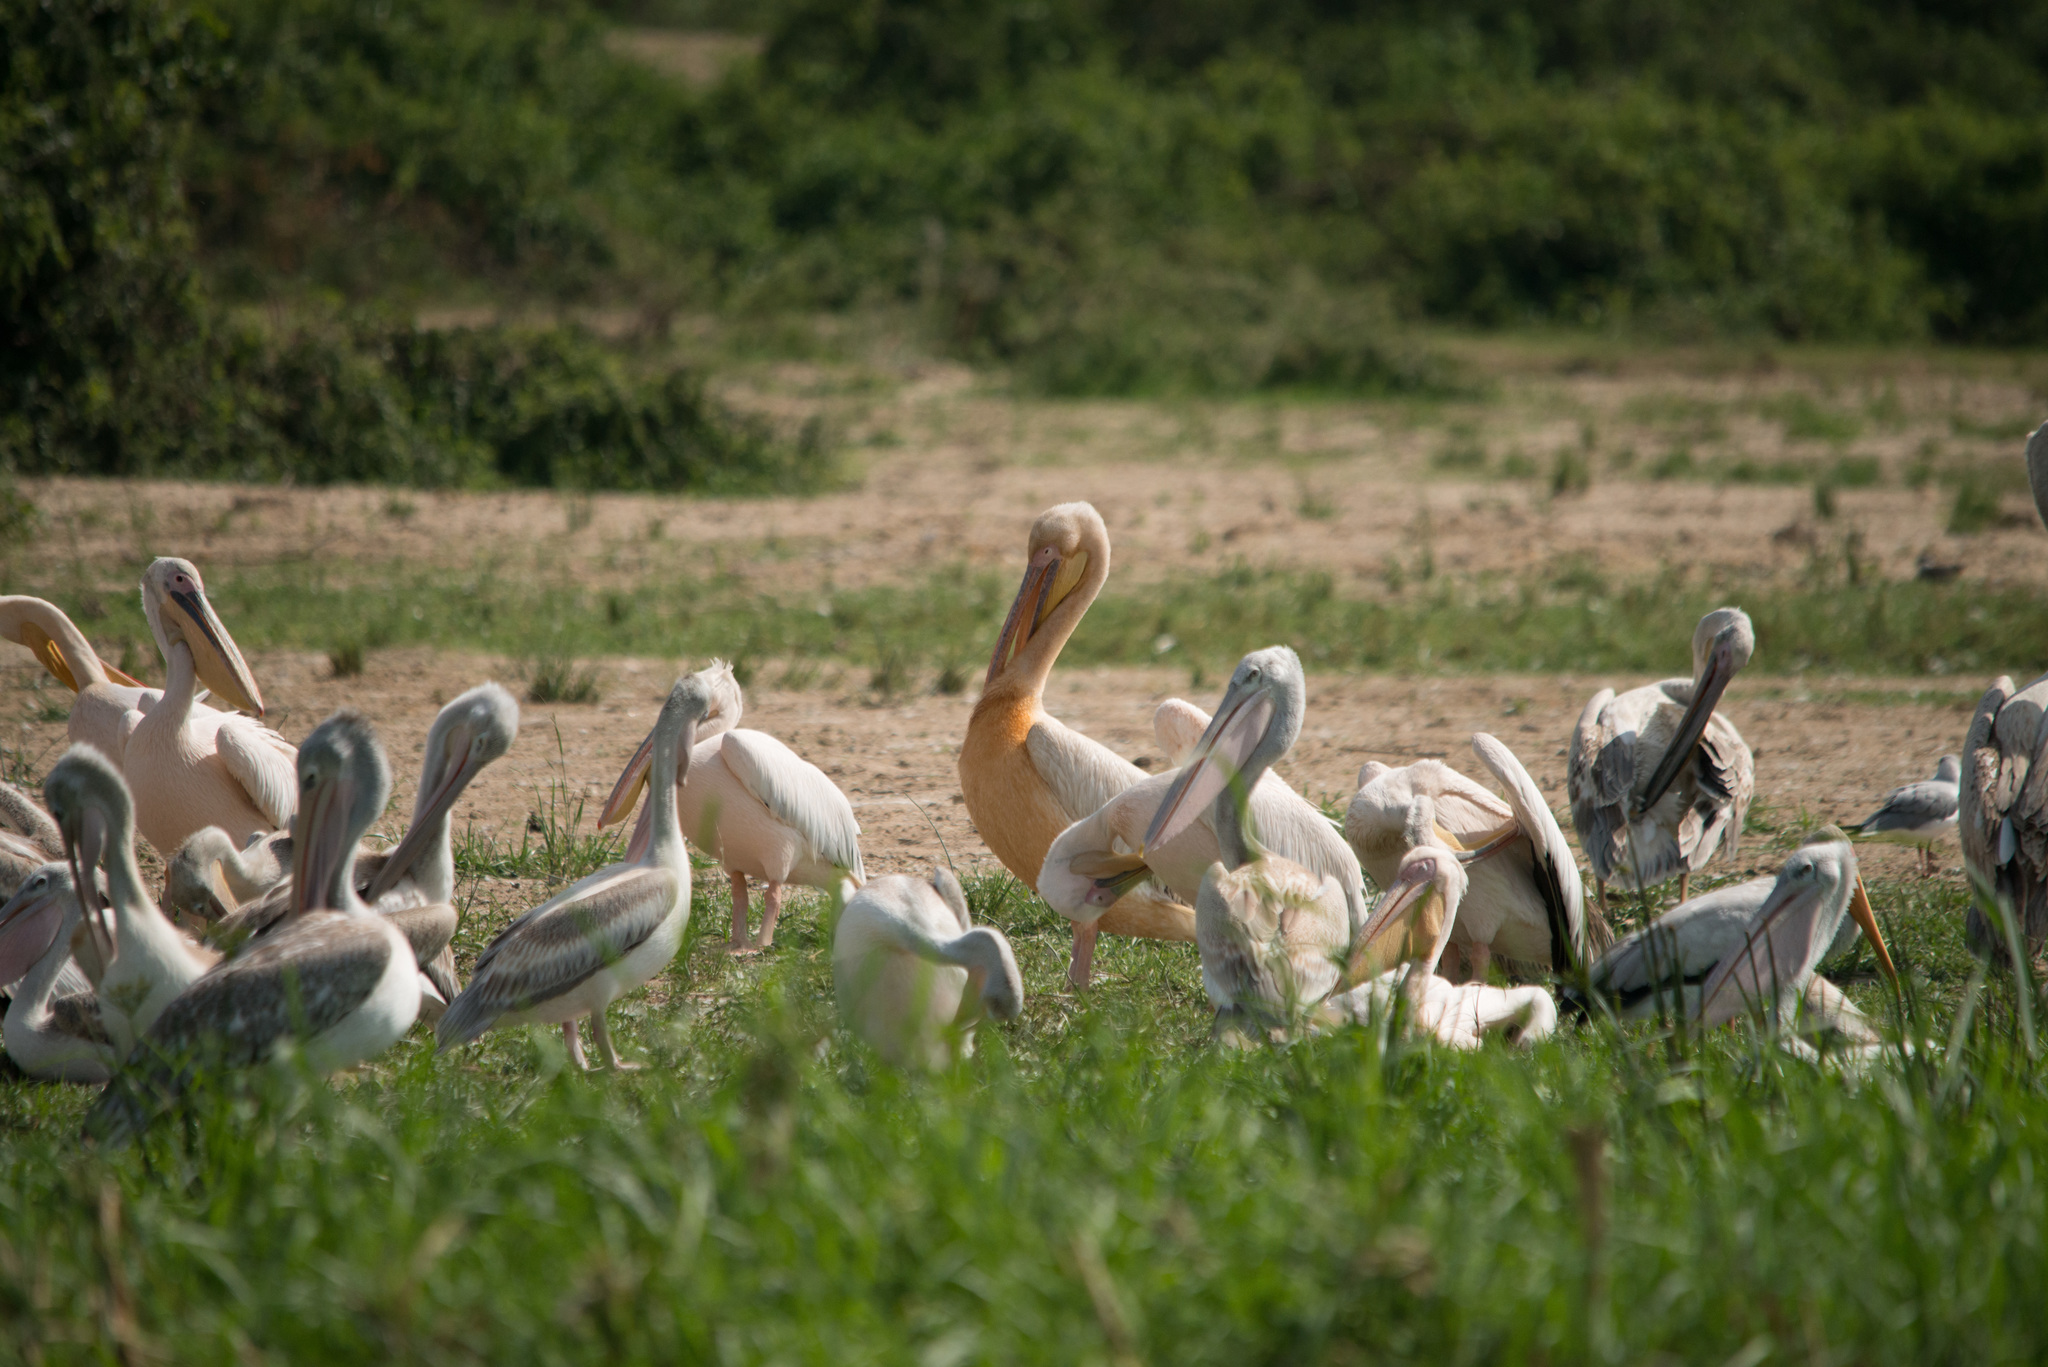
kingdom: Animalia
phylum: Chordata
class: Aves
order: Pelecaniformes
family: Pelecanidae
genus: Pelecanus
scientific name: Pelecanus onocrotalus
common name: Great white pelican
